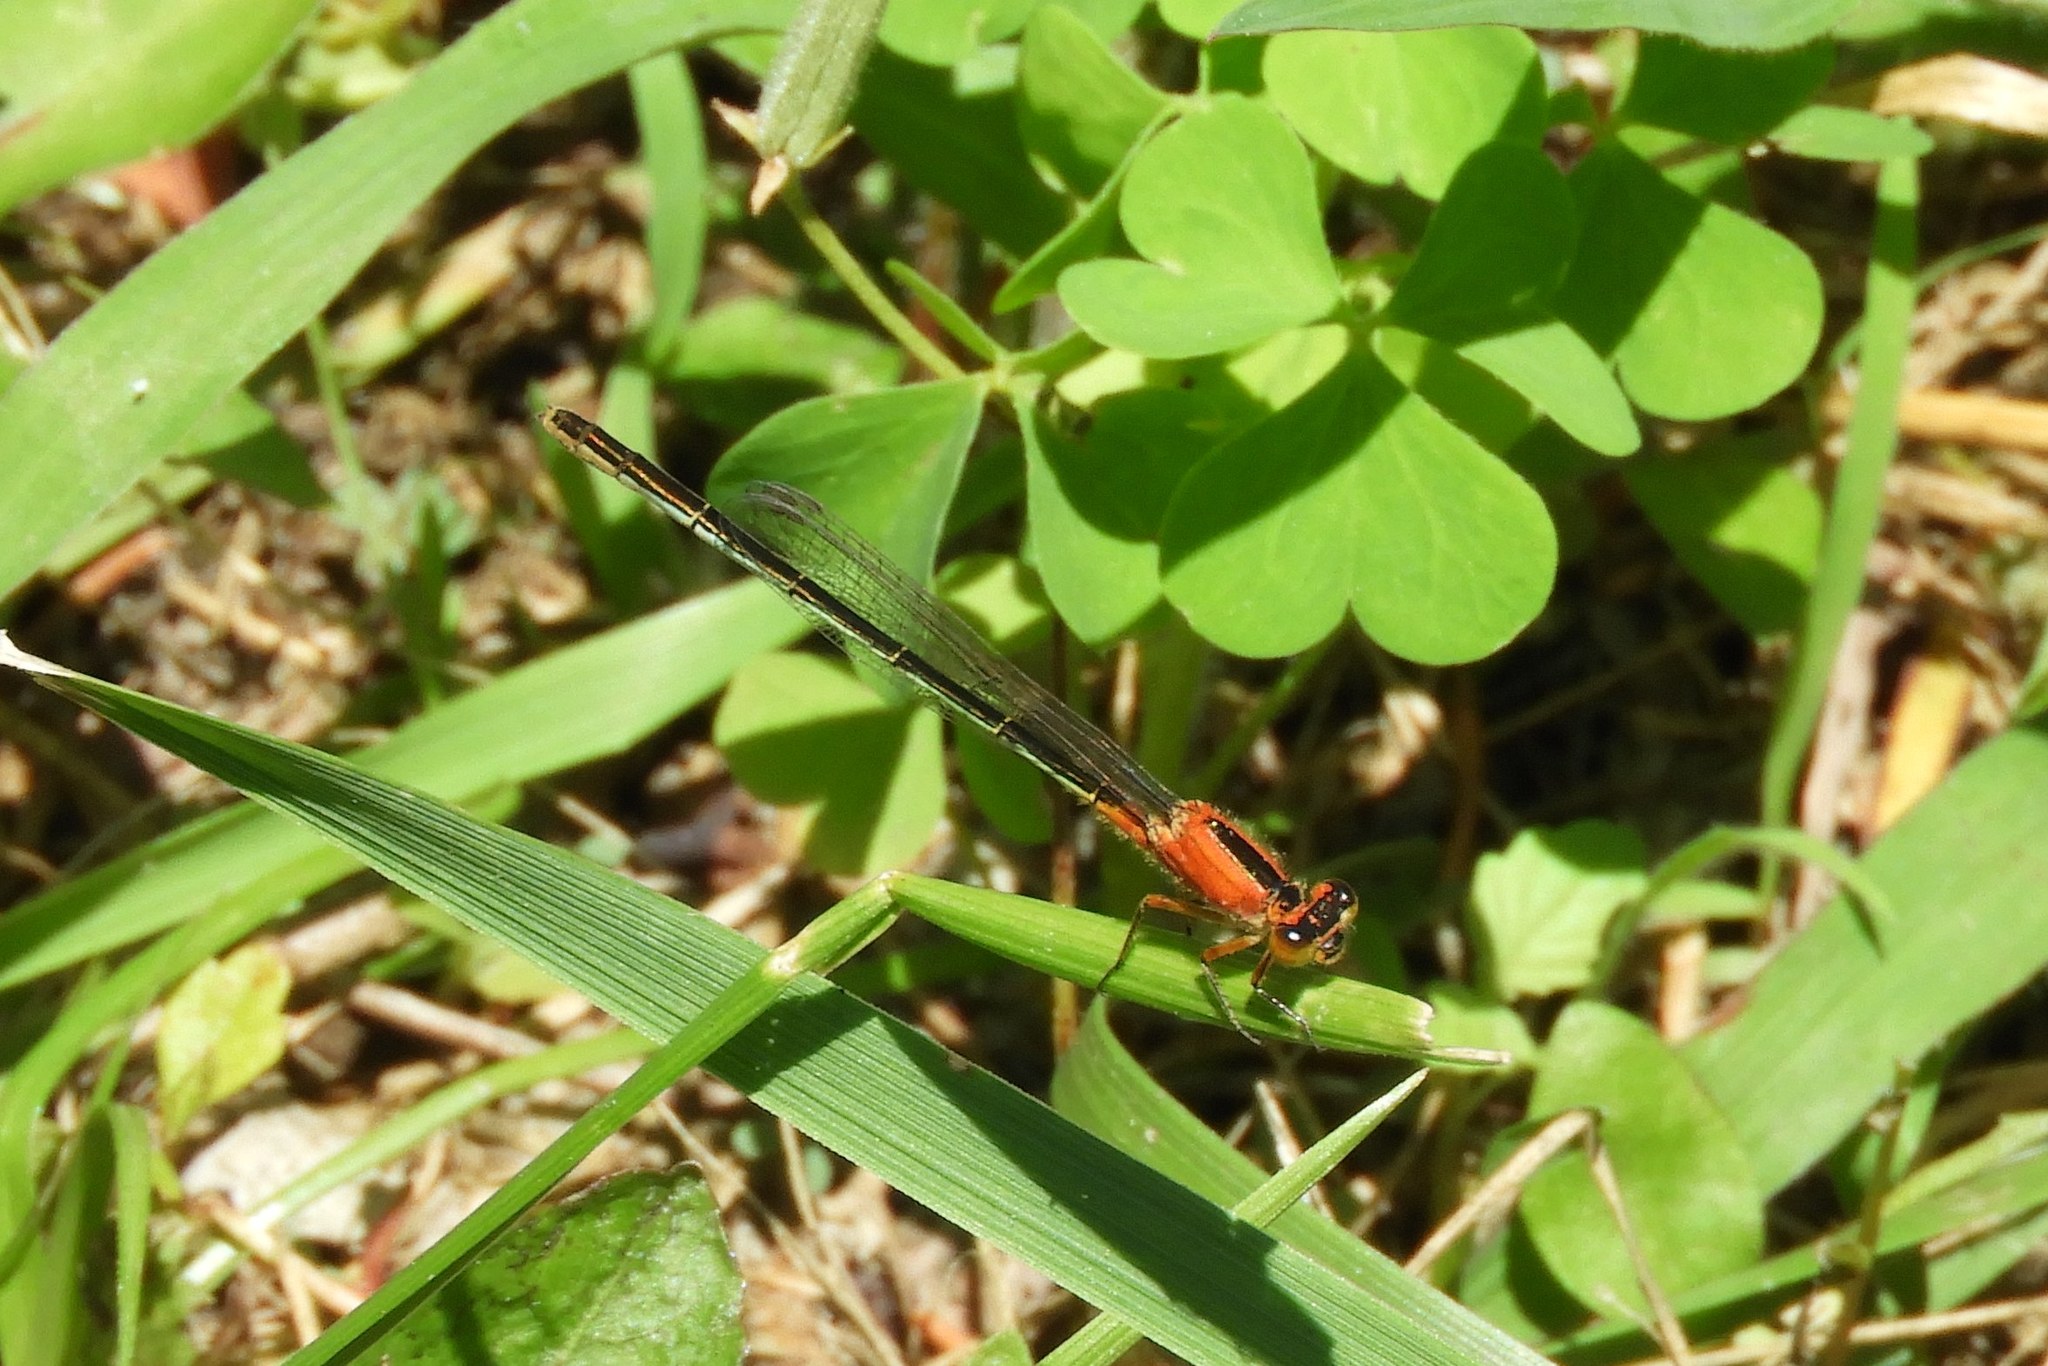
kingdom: Animalia
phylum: Arthropoda
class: Insecta
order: Odonata
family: Coenagrionidae
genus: Ischnura
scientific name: Ischnura ramburii
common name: Rambur's forktail
